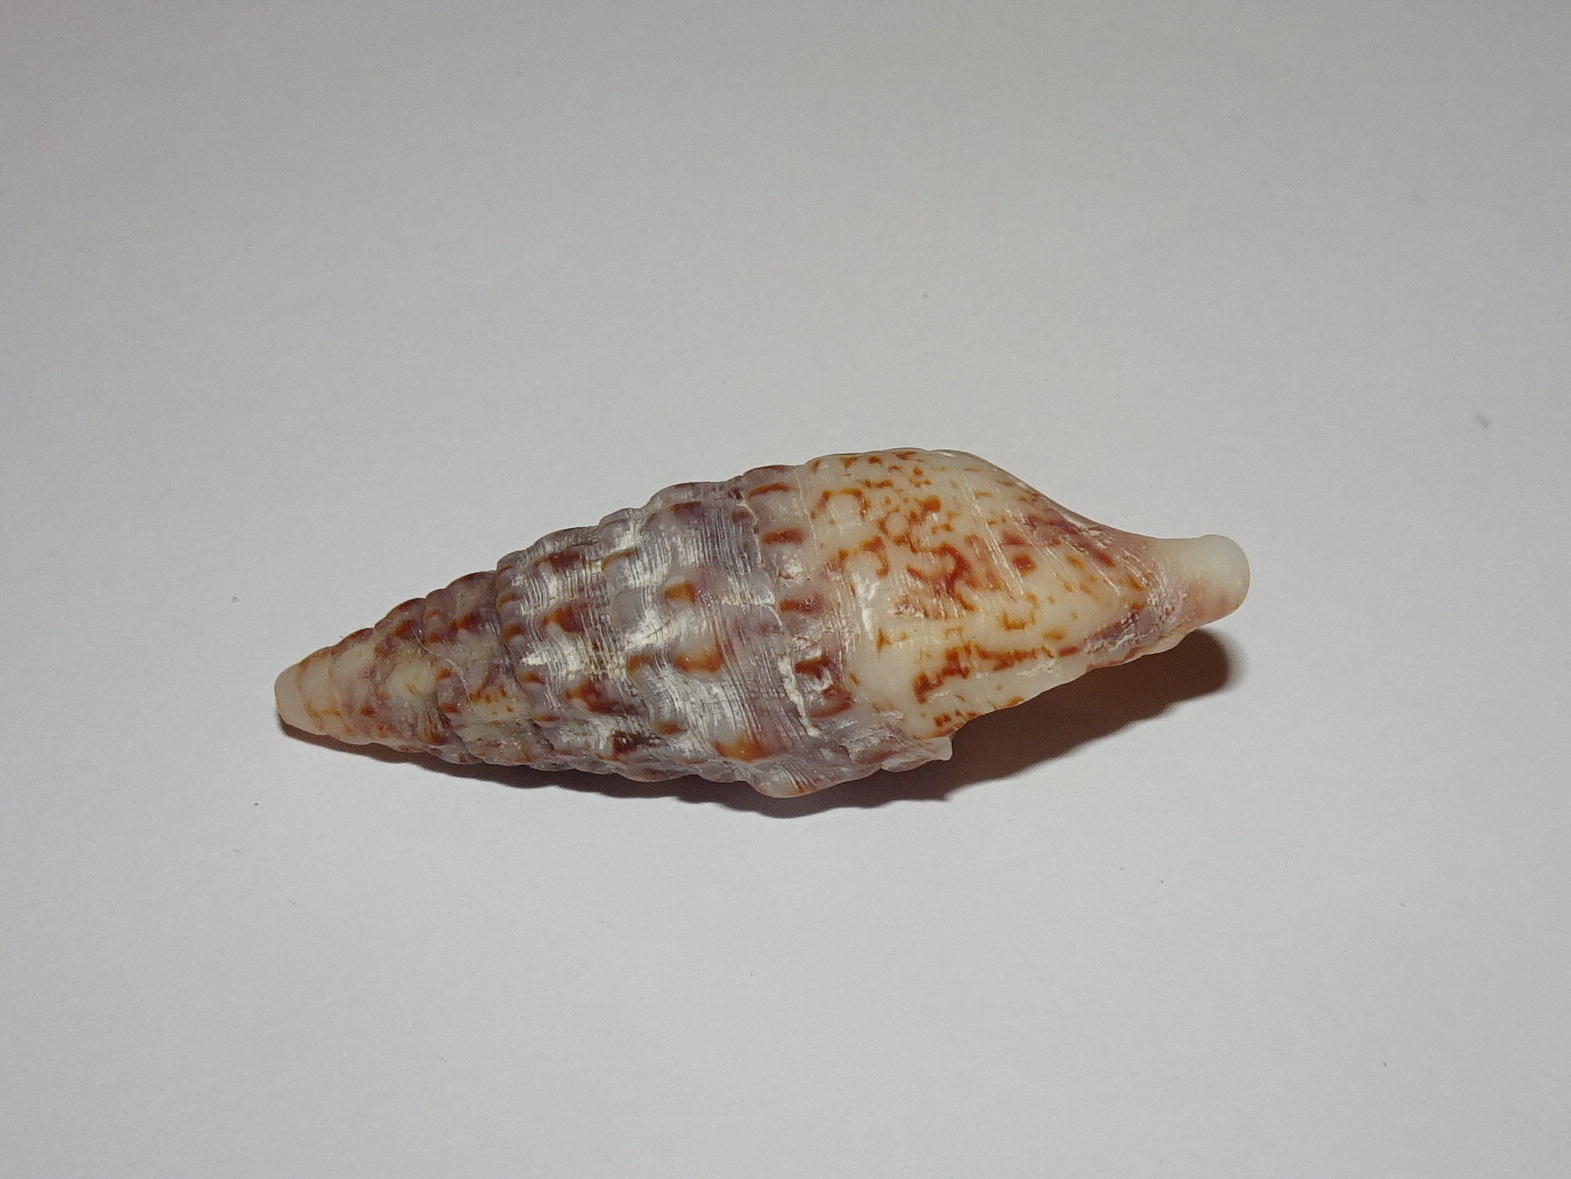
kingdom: Animalia
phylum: Mollusca
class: Gastropoda
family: Cerithiidae
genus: Cerithium
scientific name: Cerithium vulgatum
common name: European cerith
